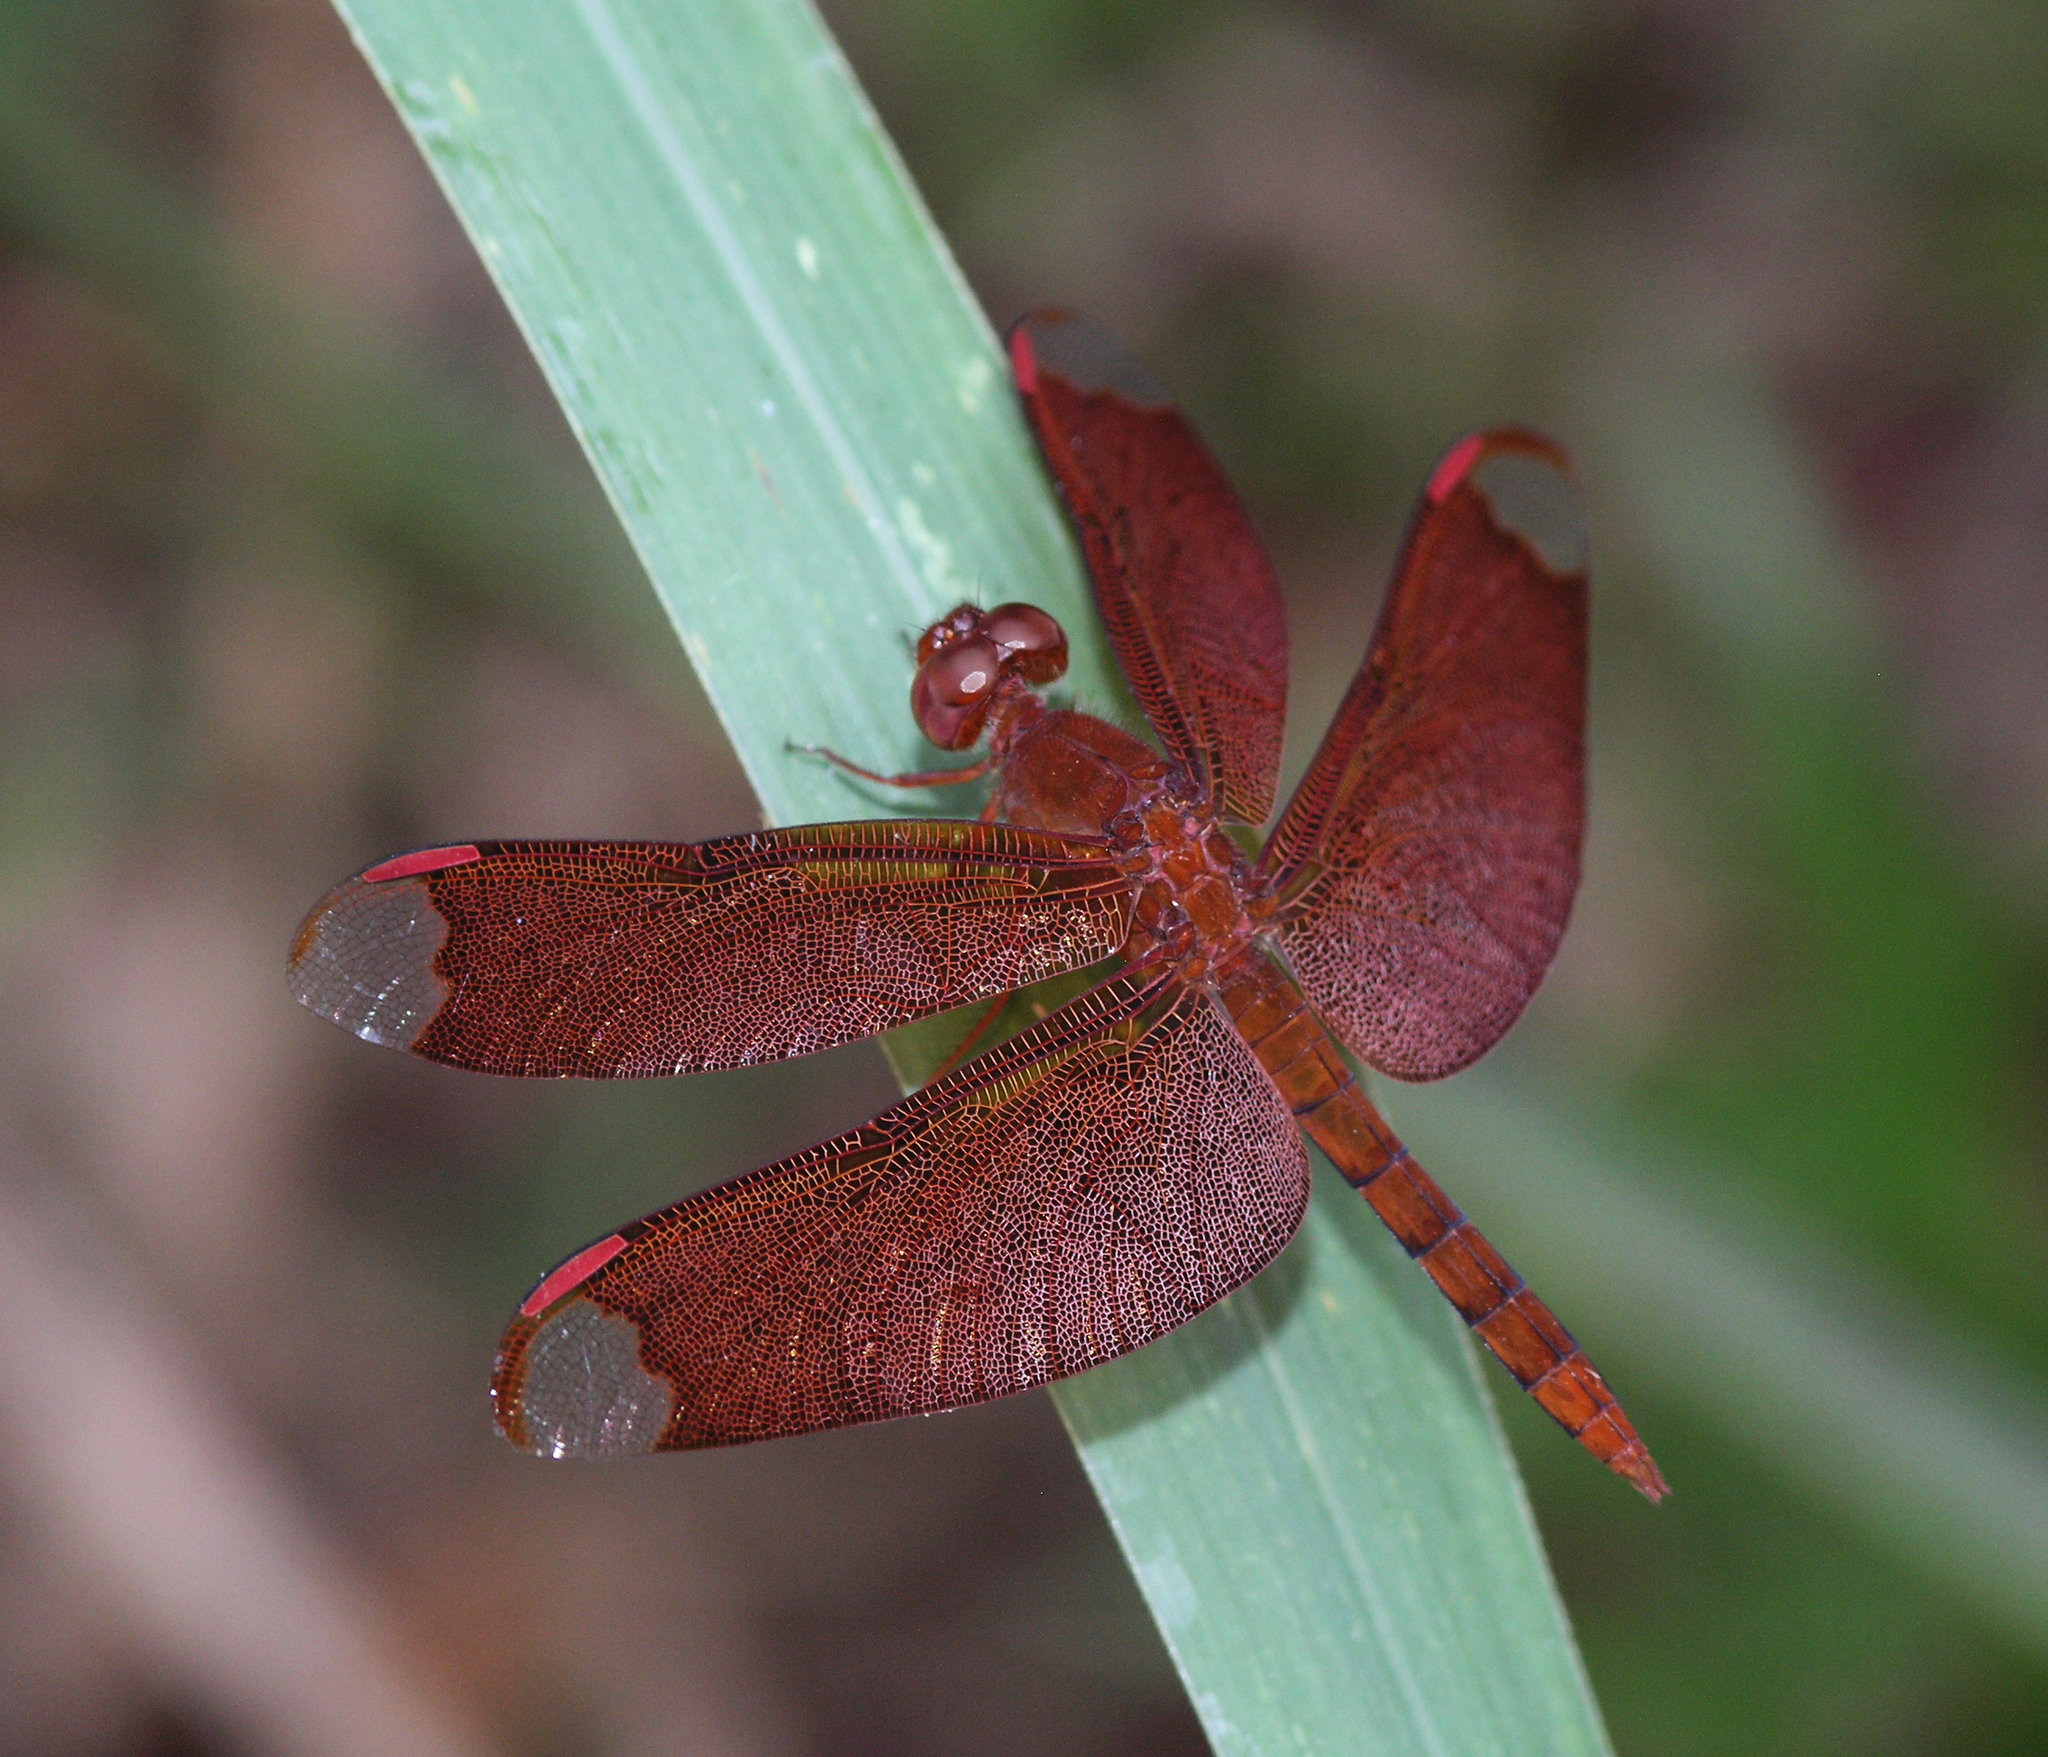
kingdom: Animalia
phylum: Arthropoda
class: Insecta
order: Odonata
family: Libellulidae
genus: Neurothemis
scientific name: Neurothemis fulvia
